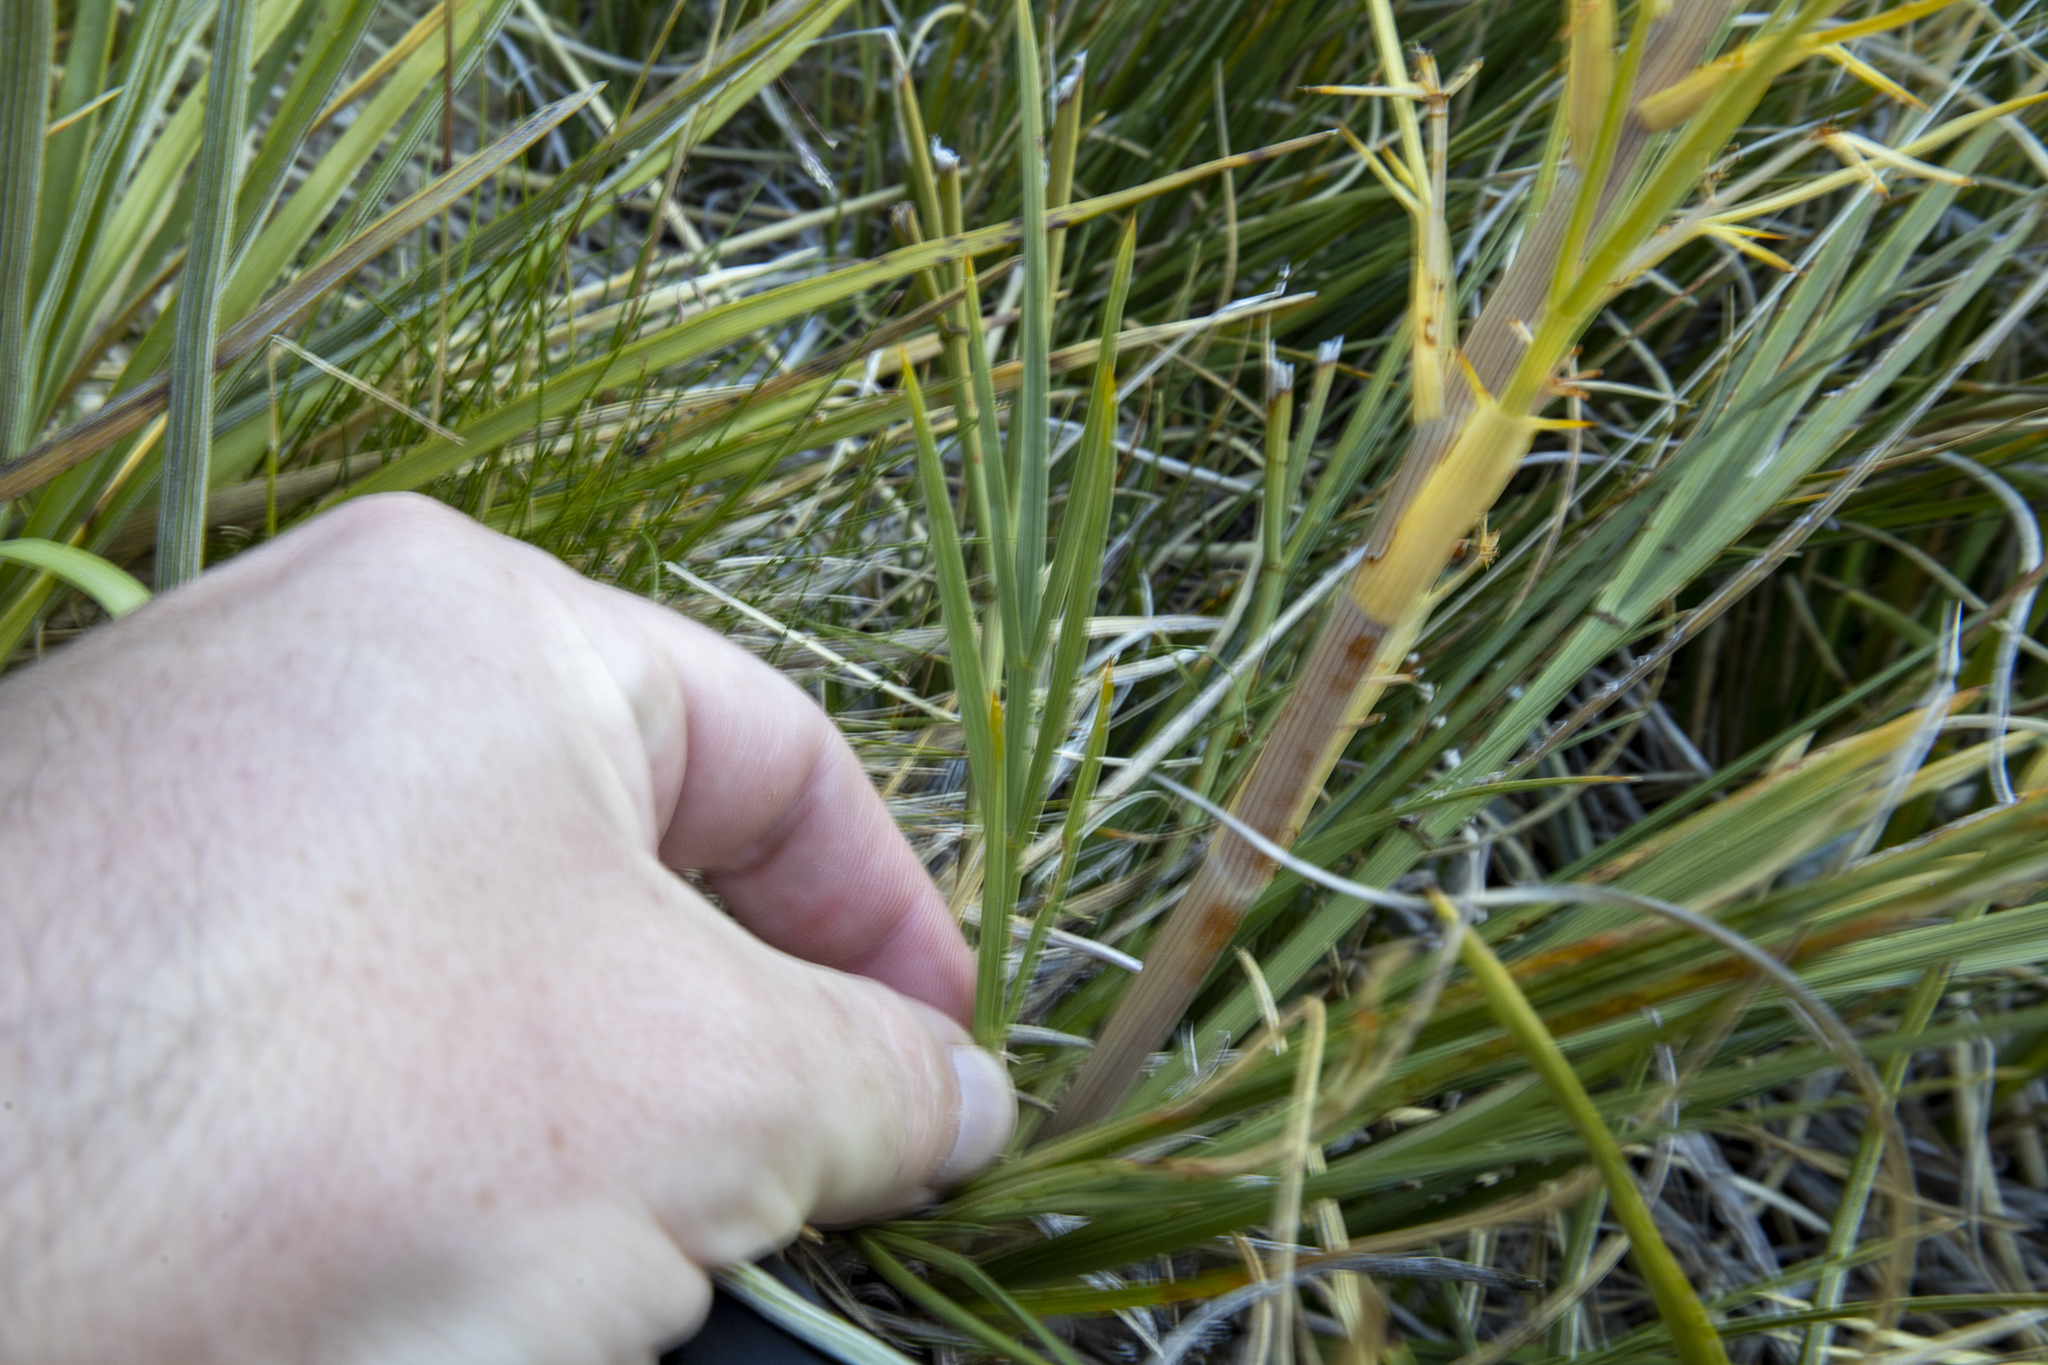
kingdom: Plantae
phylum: Tracheophyta
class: Magnoliopsida
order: Apiales
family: Apiaceae
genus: Aciphylla
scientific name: Aciphylla crenulata
